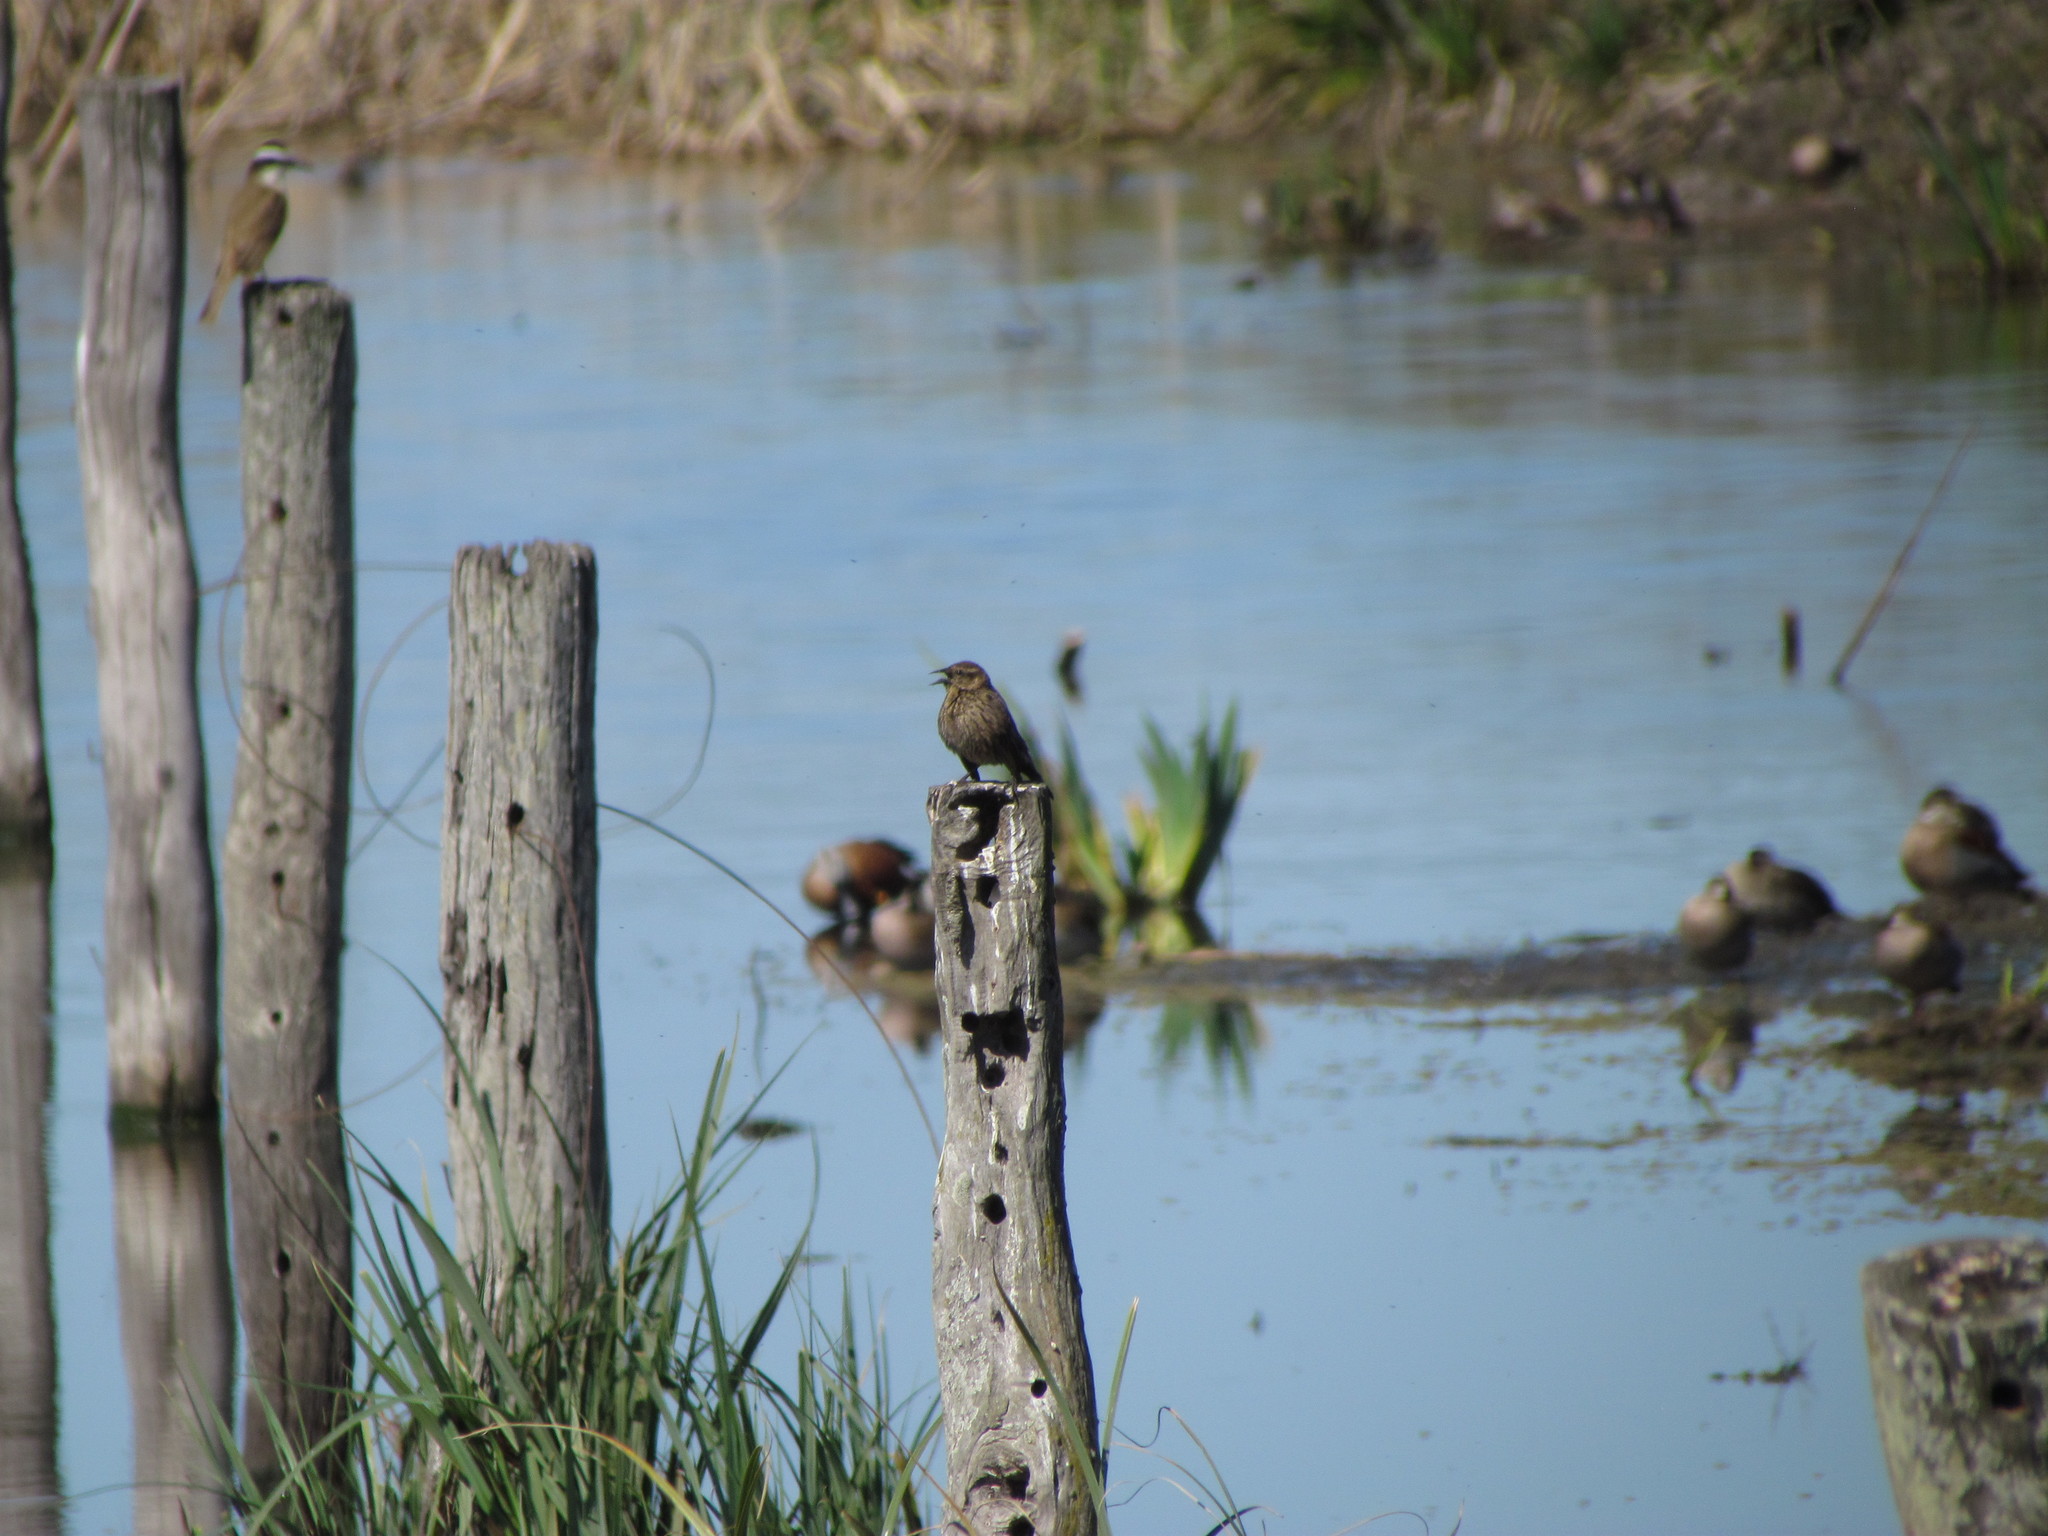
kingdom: Animalia
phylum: Chordata
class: Aves
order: Passeriformes
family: Icteridae
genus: Agelasticus
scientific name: Agelasticus thilius
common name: Yellow-winged blackbird
